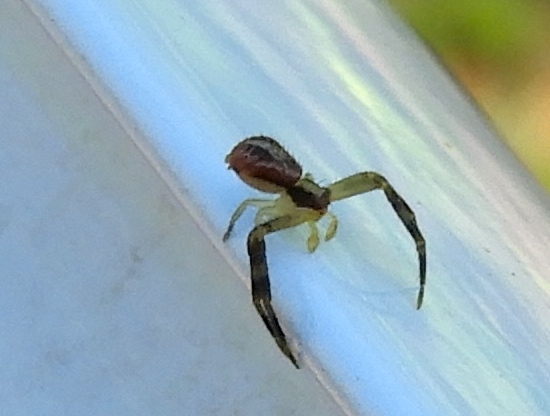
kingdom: Animalia
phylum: Arthropoda
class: Arachnida
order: Araneae
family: Thomisidae
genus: Mecaphesa
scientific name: Mecaphesa
